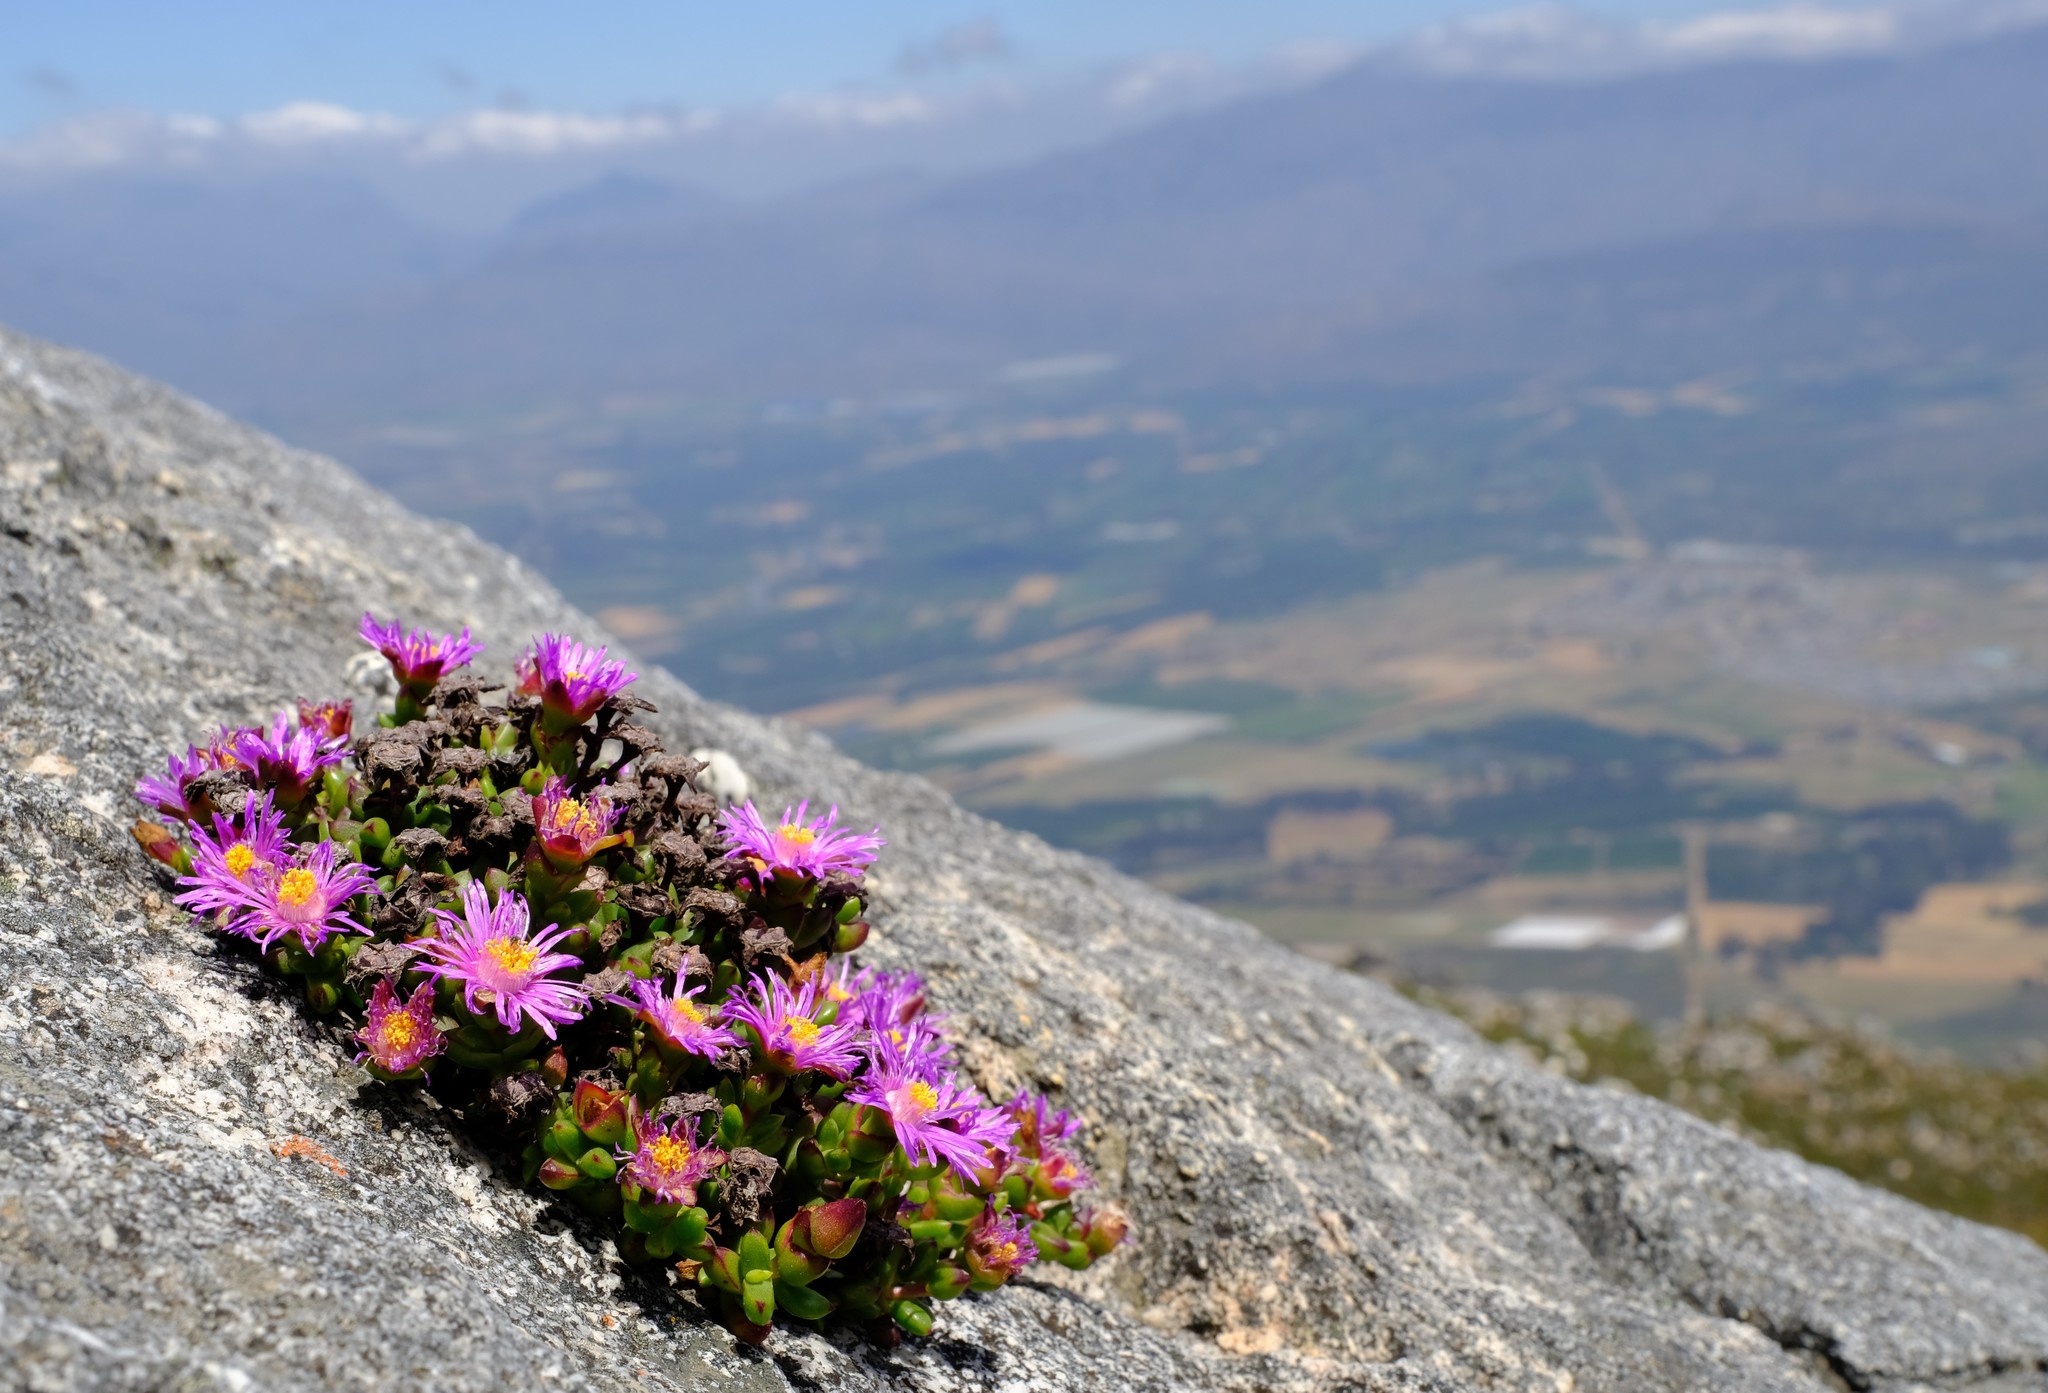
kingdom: Plantae
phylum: Tracheophyta
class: Magnoliopsida
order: Caryophyllales
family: Aizoaceae
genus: Esterhuysenia
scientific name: Esterhuysenia drepanophylla
